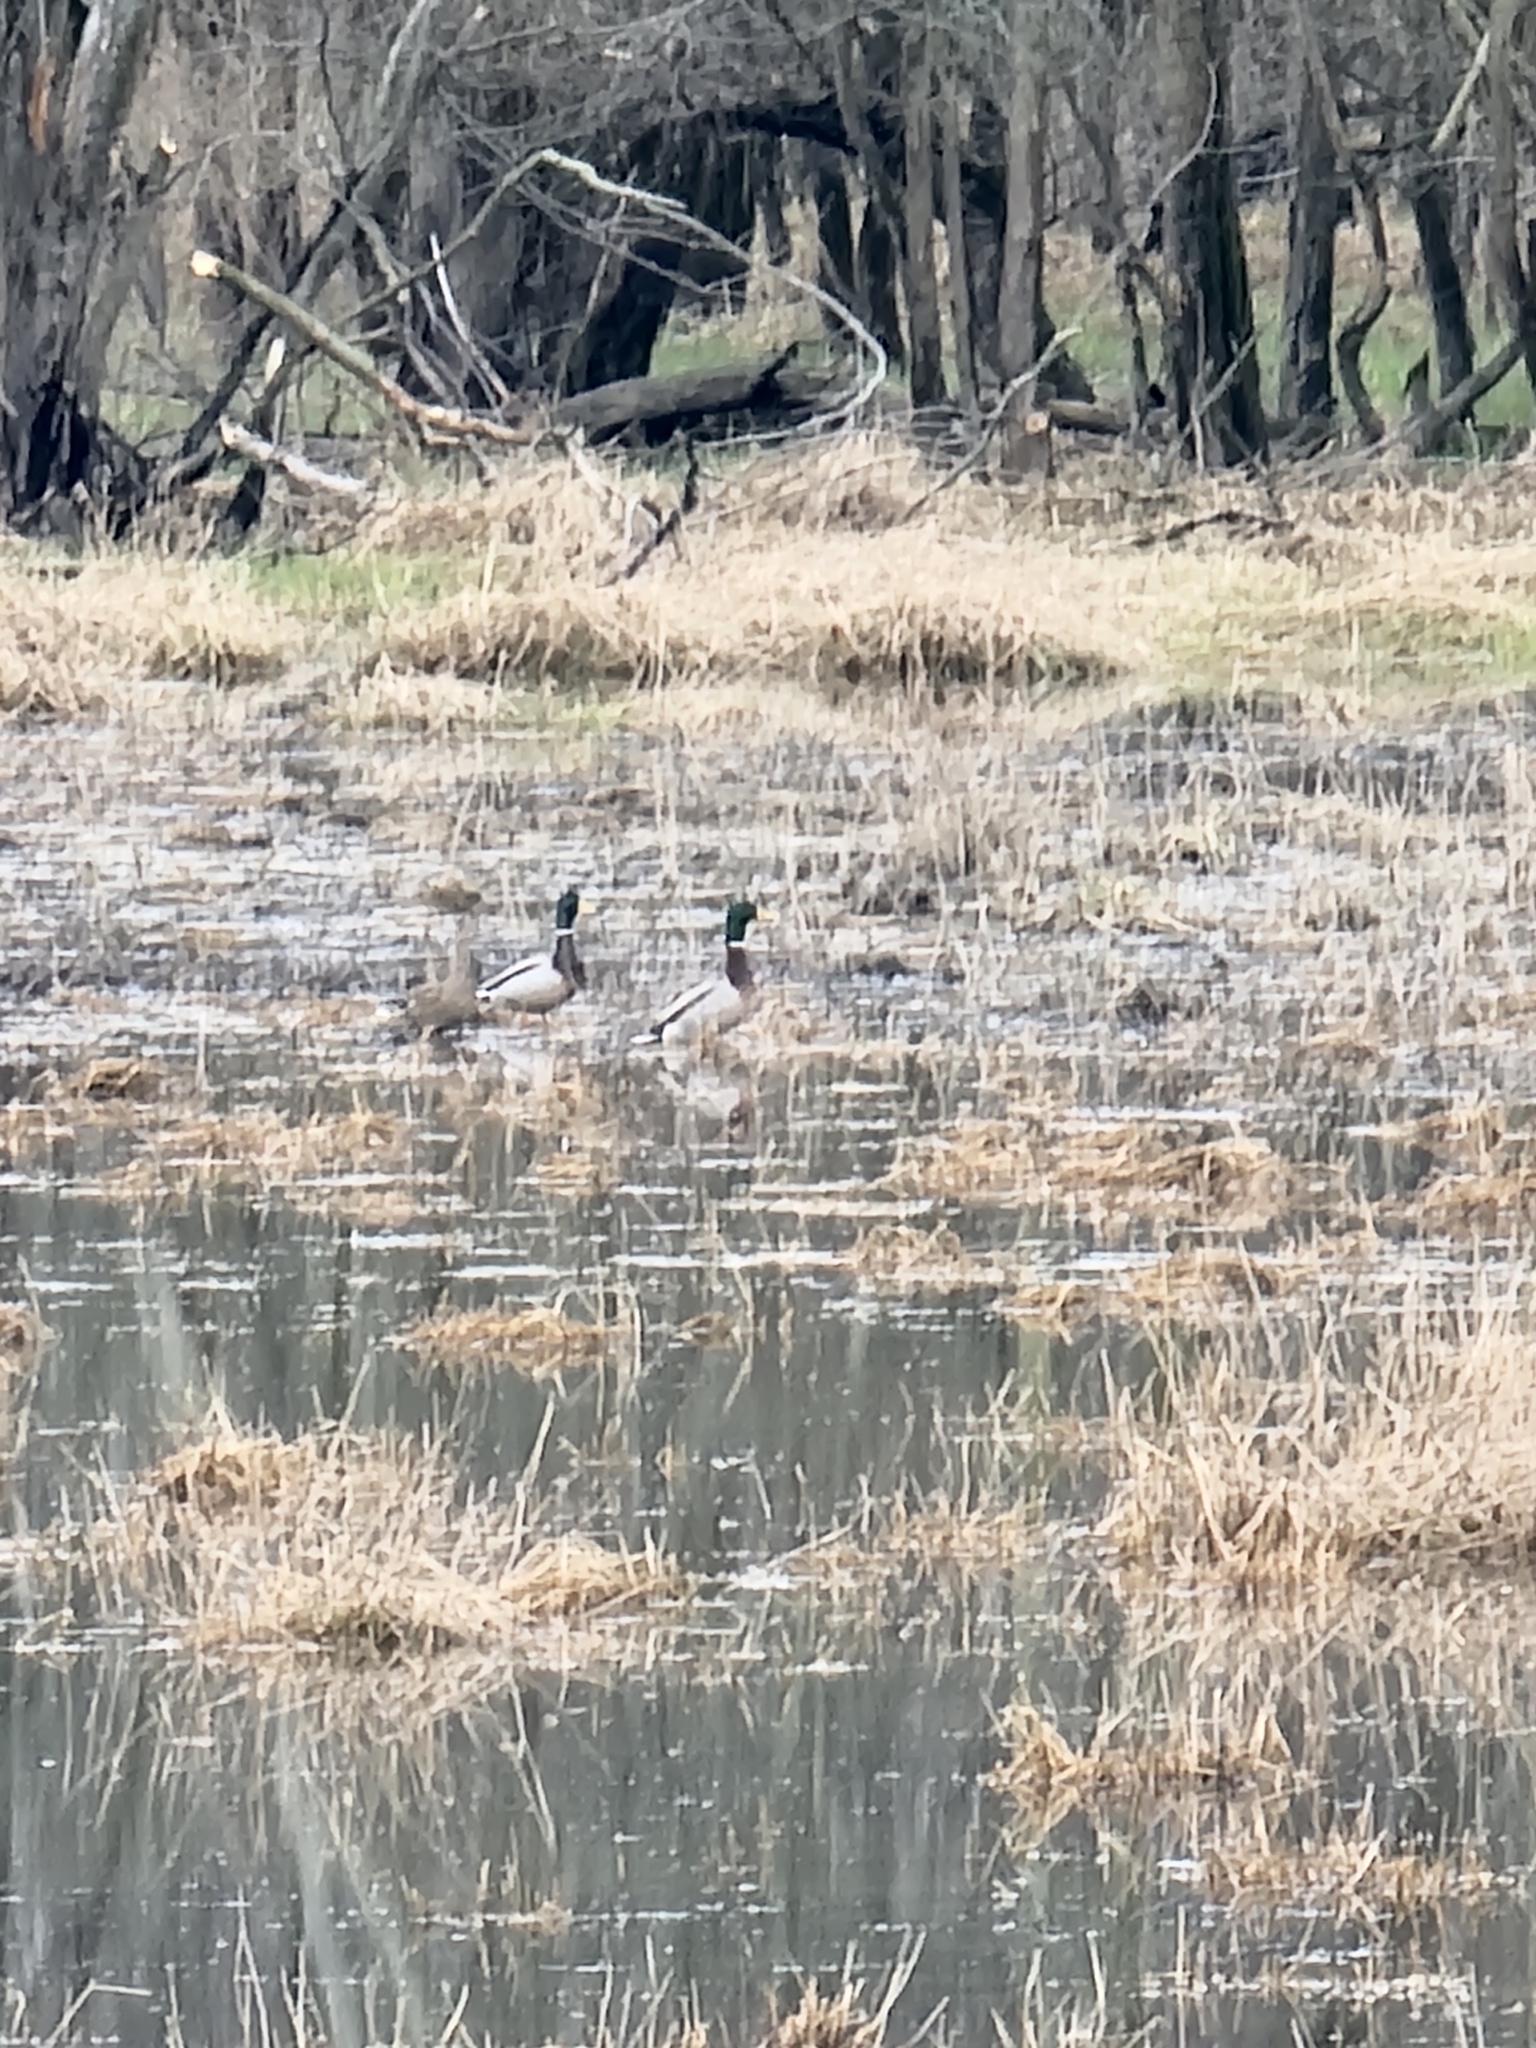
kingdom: Animalia
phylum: Chordata
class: Aves
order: Anseriformes
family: Anatidae
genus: Anas
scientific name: Anas platyrhynchos
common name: Mallard
